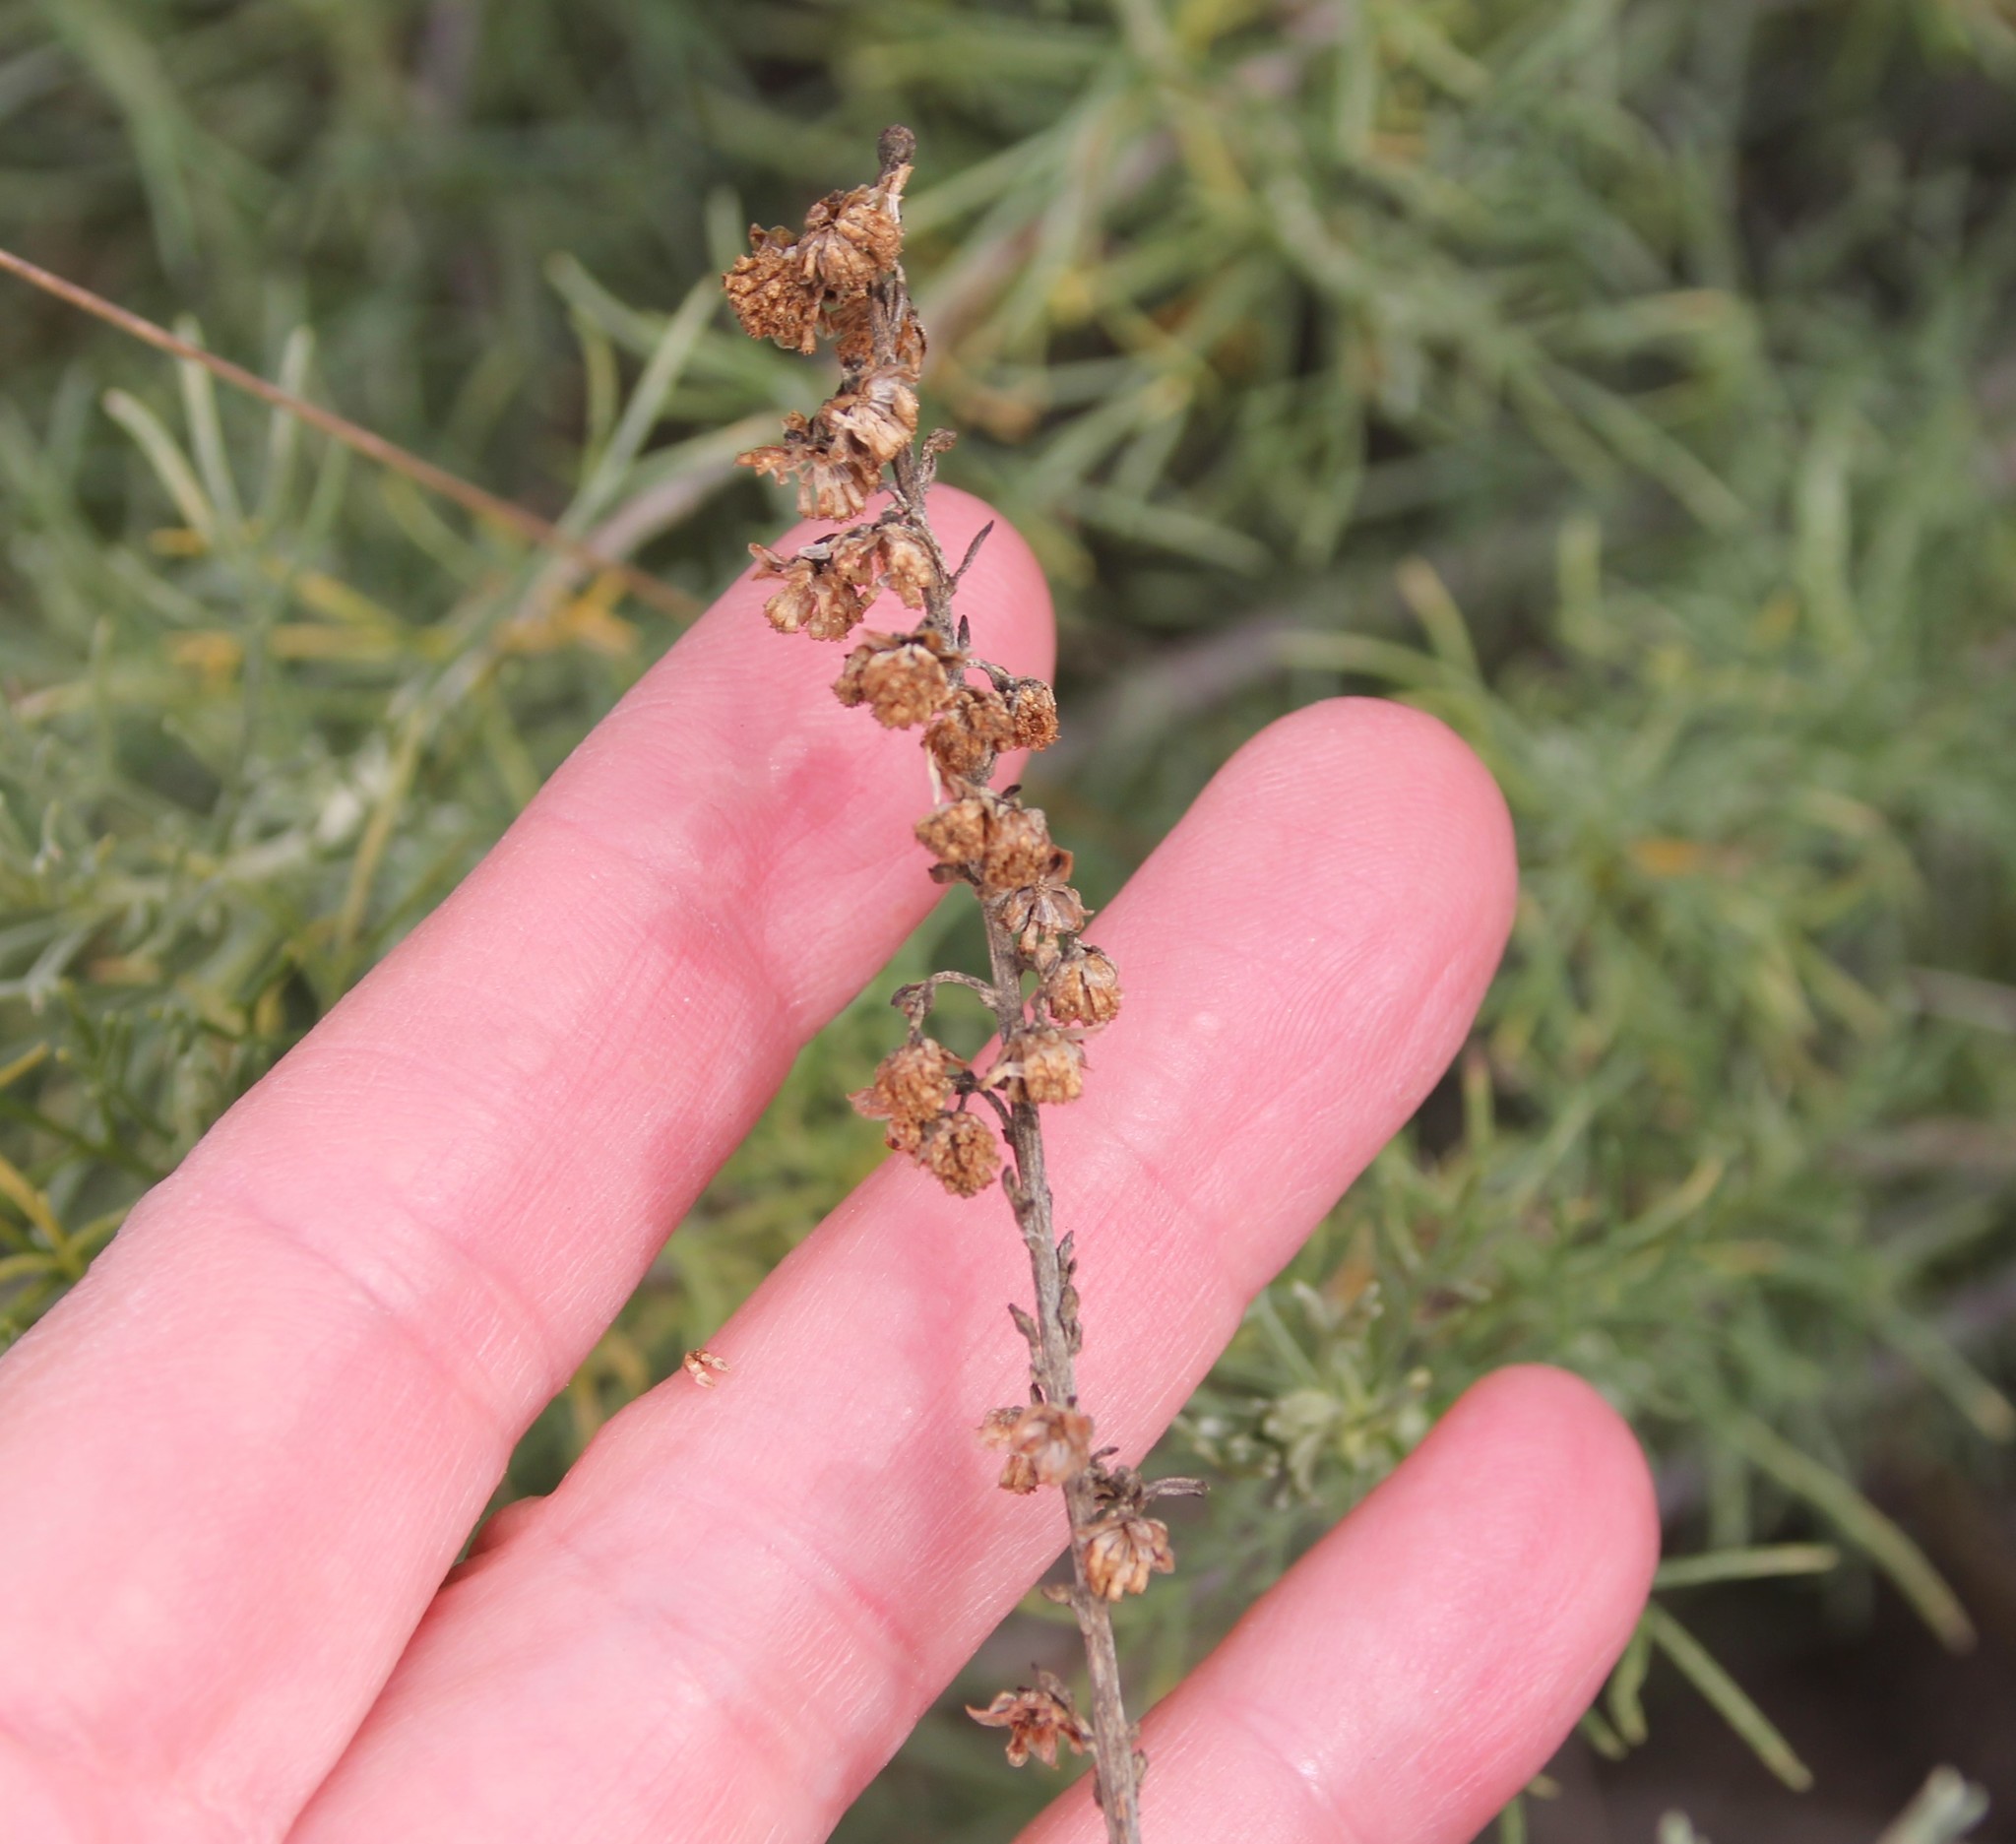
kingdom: Plantae
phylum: Tracheophyta
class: Magnoliopsida
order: Asterales
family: Asteraceae
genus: Artemisia
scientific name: Artemisia californica
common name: California sagebrush
